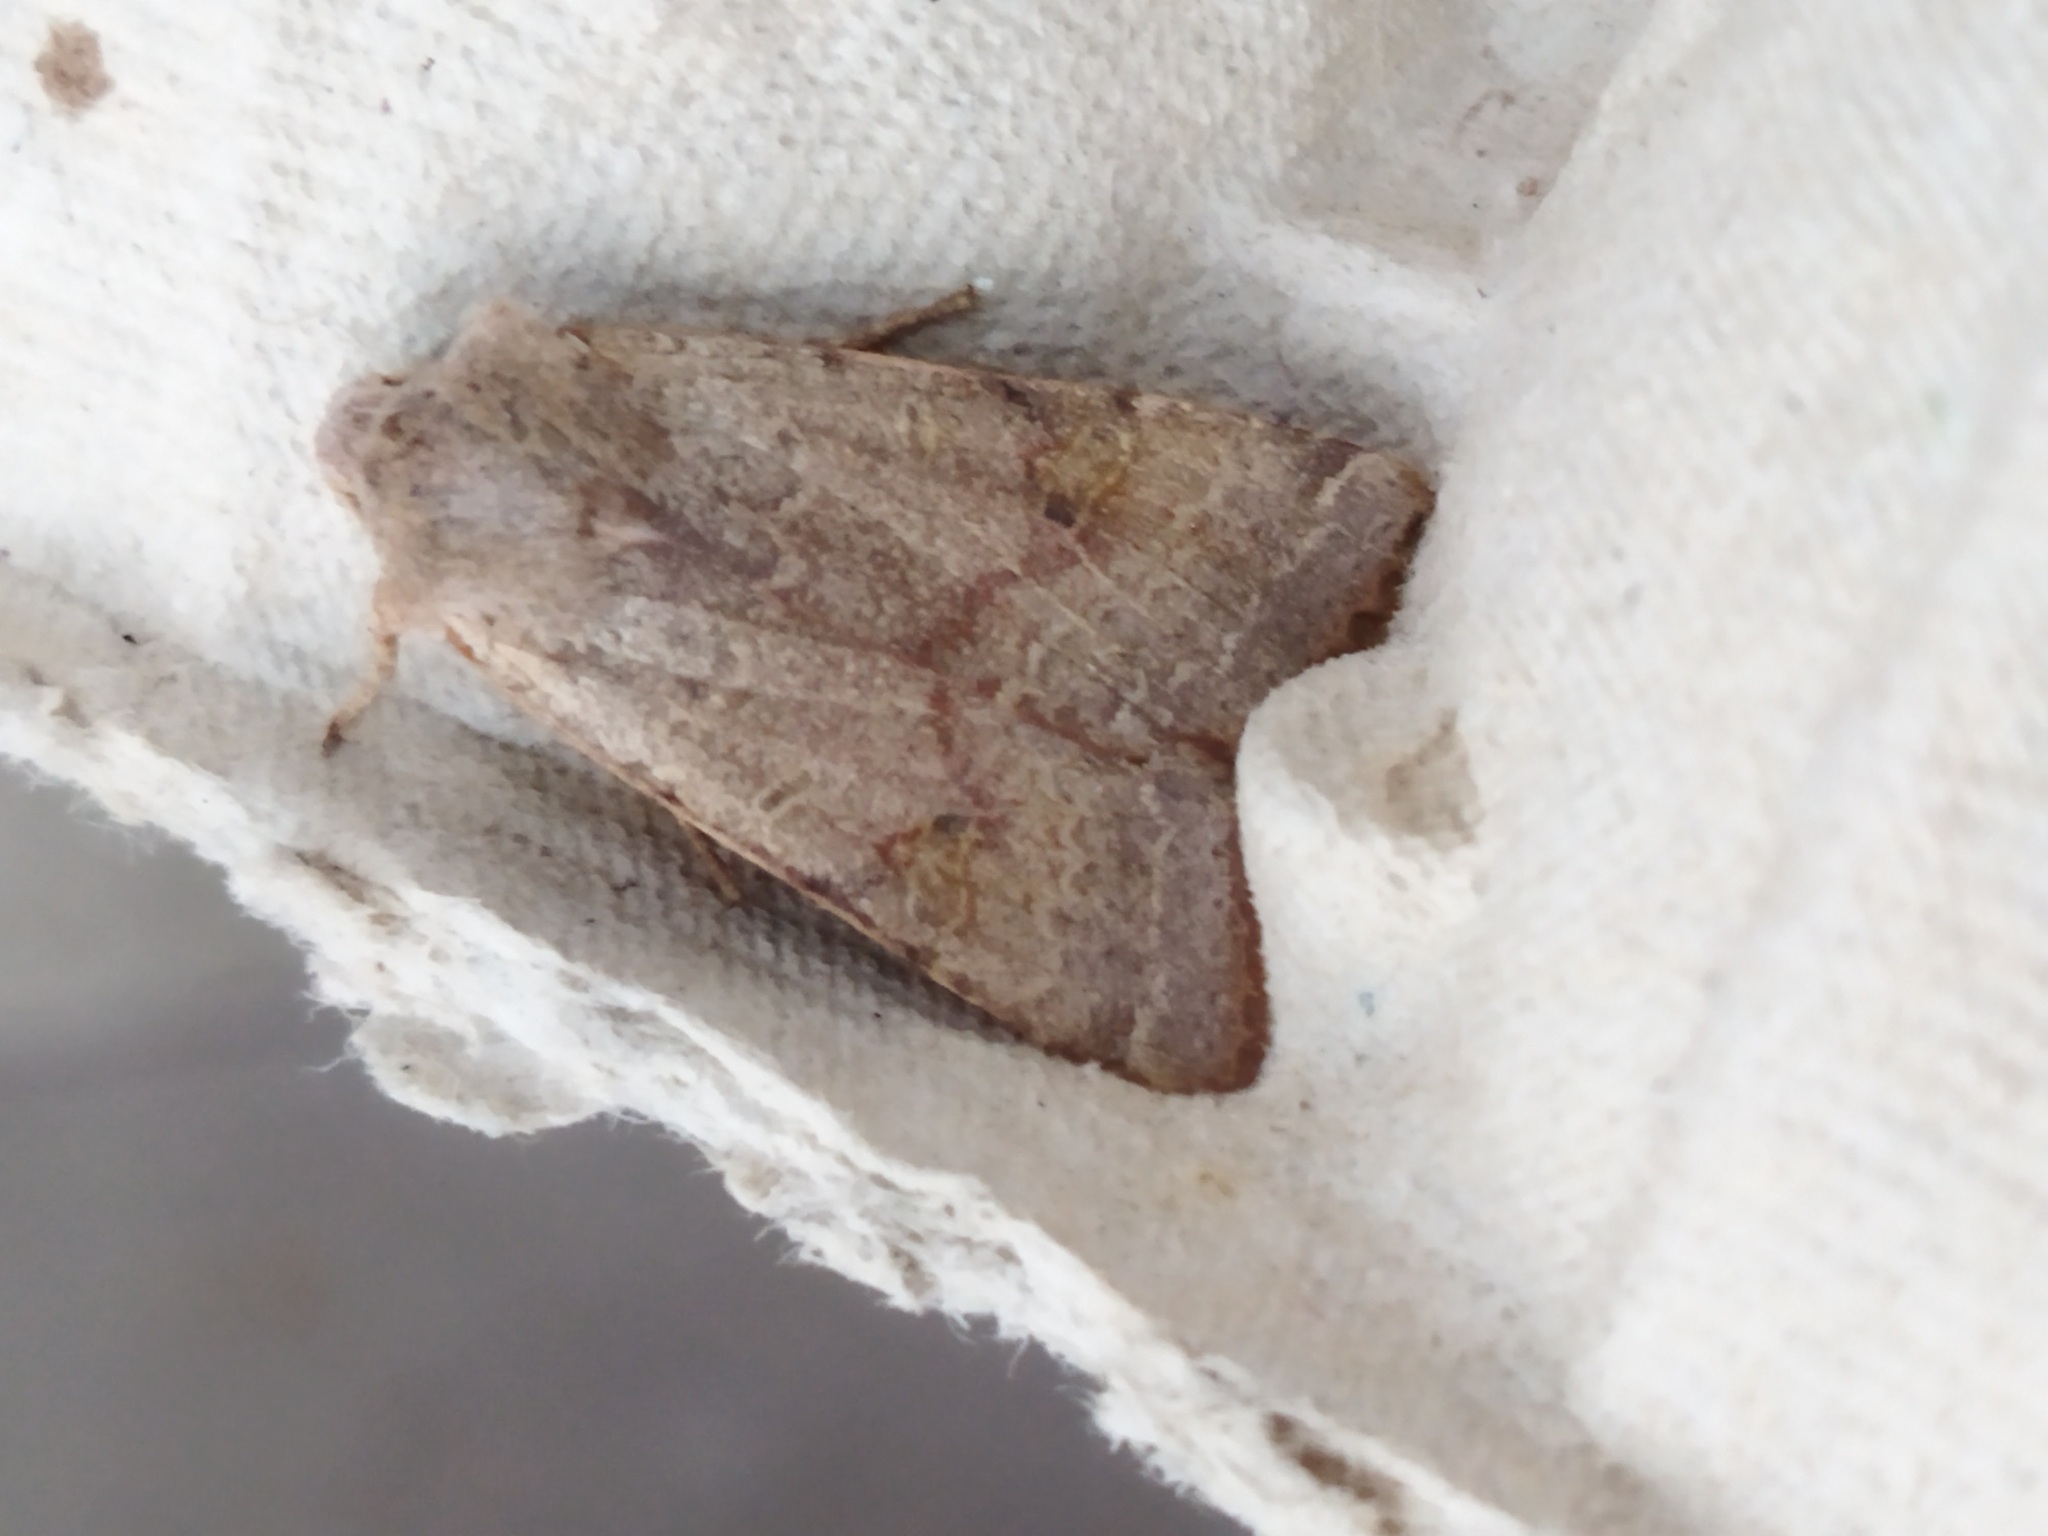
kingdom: Animalia
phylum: Arthropoda
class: Insecta
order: Lepidoptera
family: Noctuidae
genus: Agrochola
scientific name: Agrochola lychnidis
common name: Beaded chestnut
